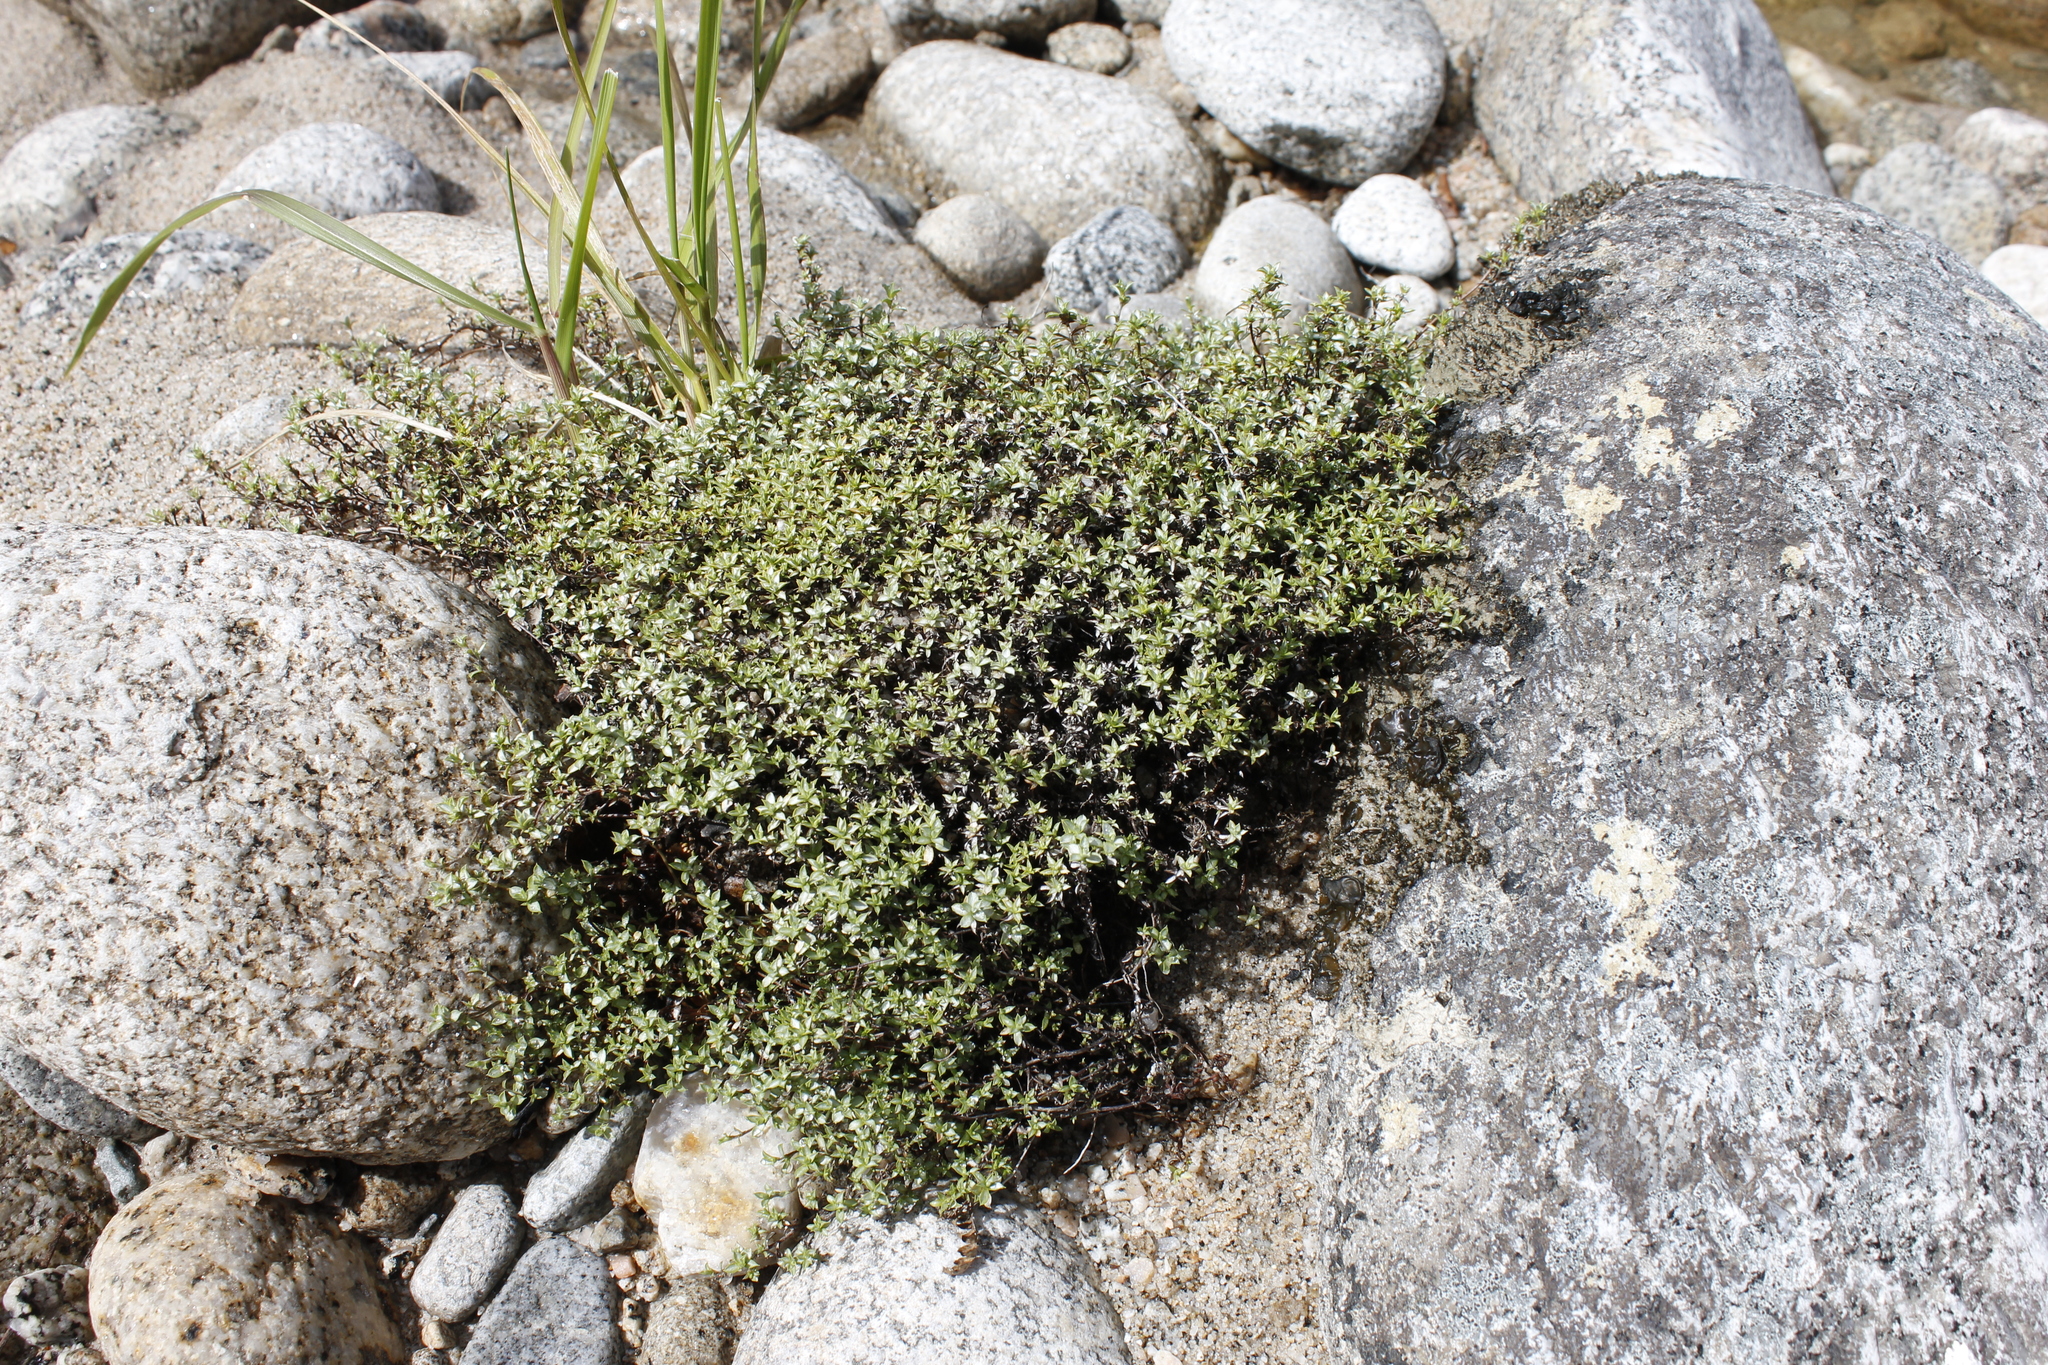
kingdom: Plantae
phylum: Tracheophyta
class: Magnoliopsida
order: Asterales
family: Asteraceae
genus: Raoulia
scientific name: Raoulia tenuicaulis
